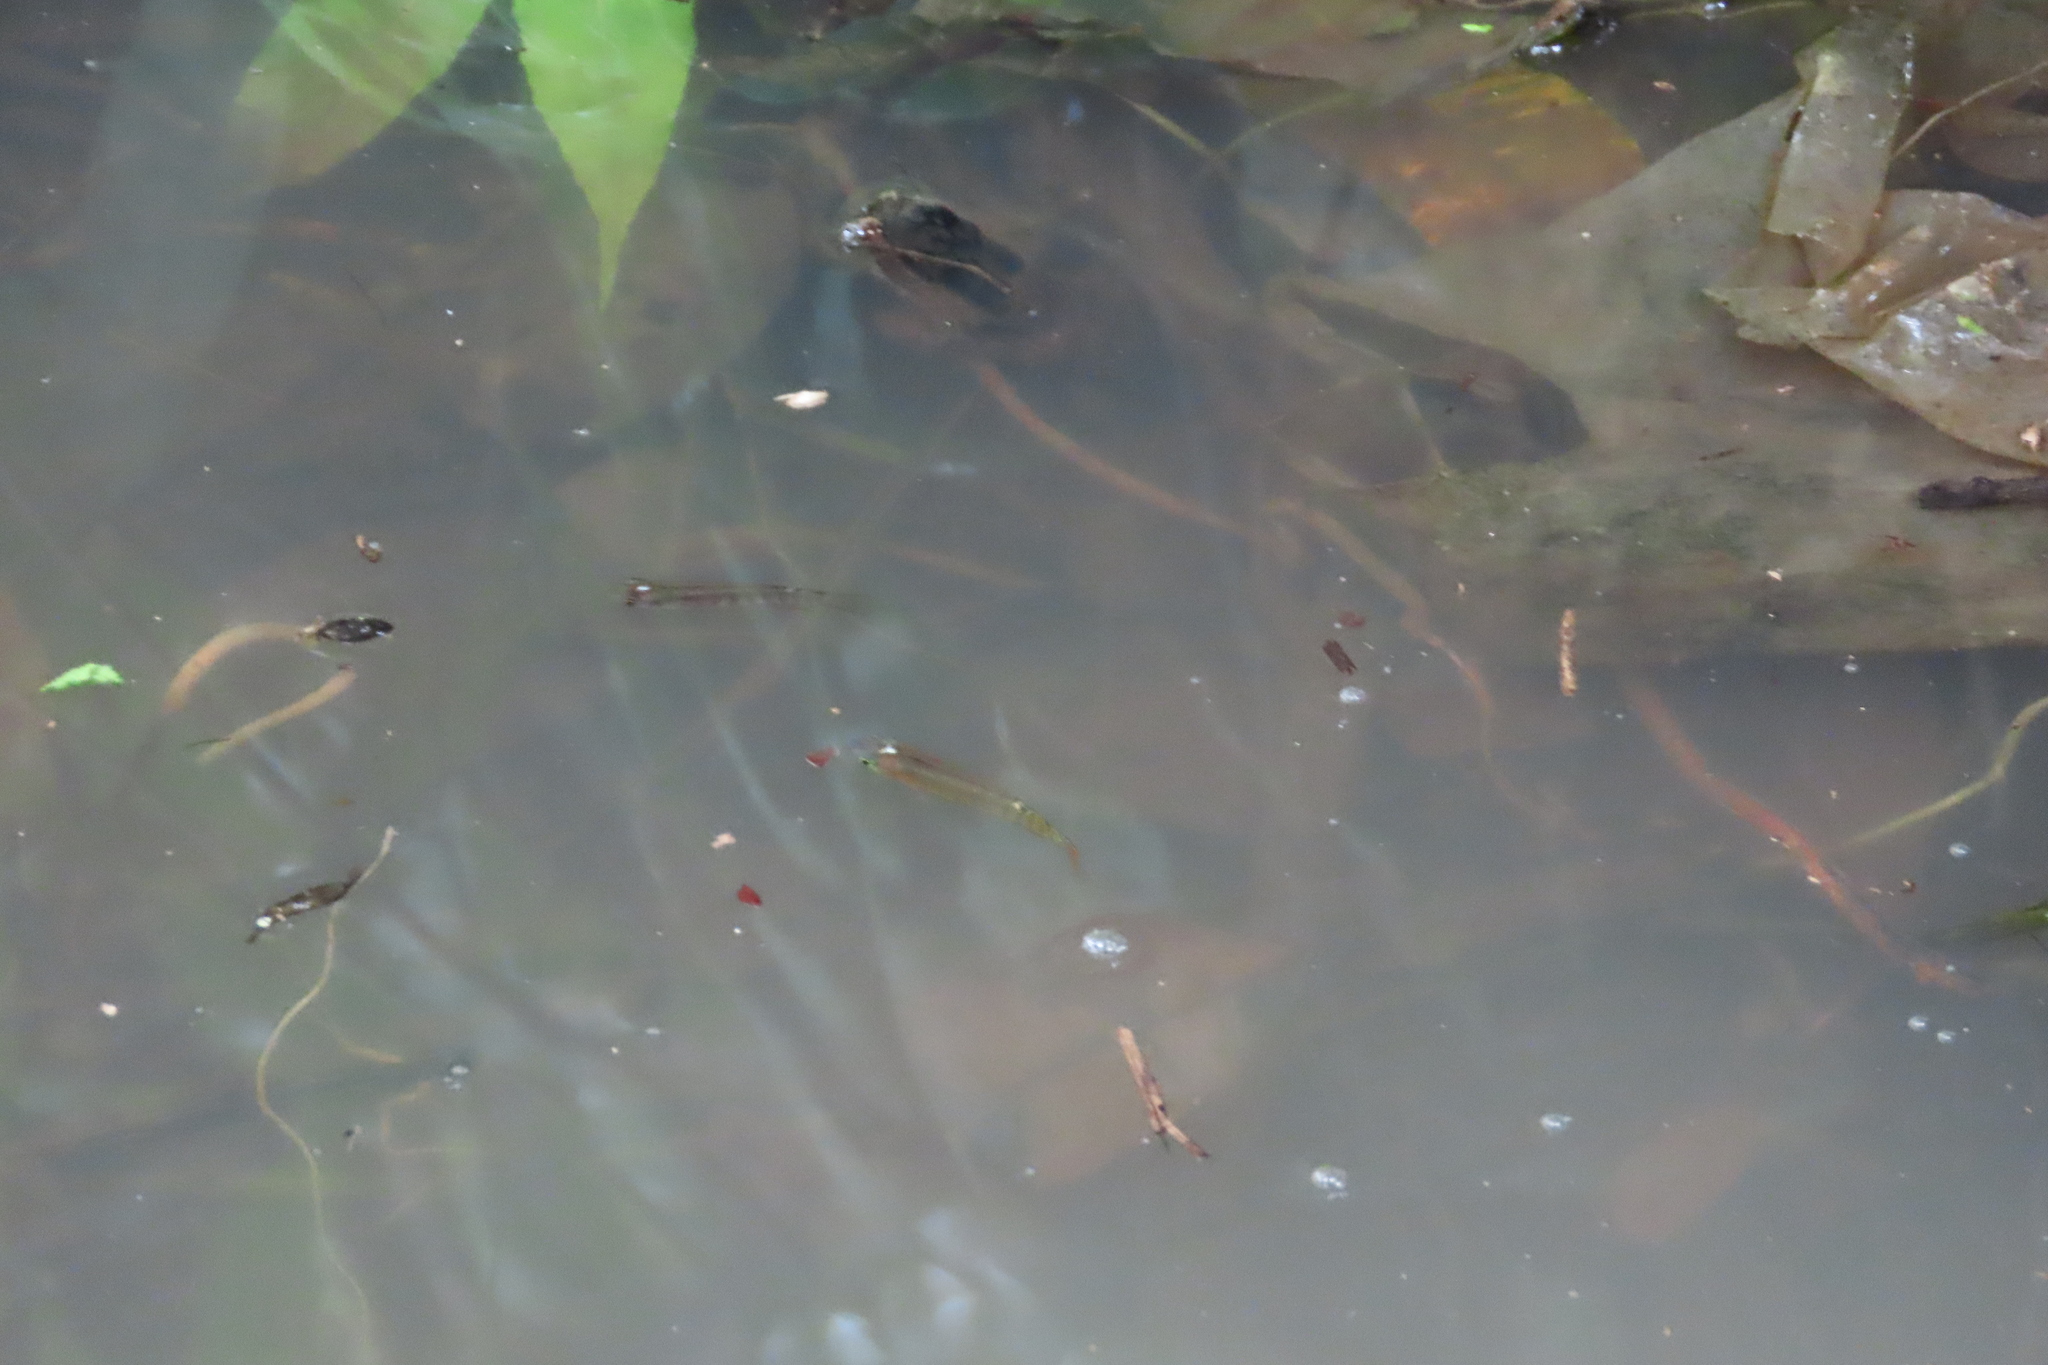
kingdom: Animalia
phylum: Chordata
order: Cyprinodontiformes
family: Aplocheilidae
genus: Aplocheilus
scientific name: Aplocheilus lineatus
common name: Striped panchax
